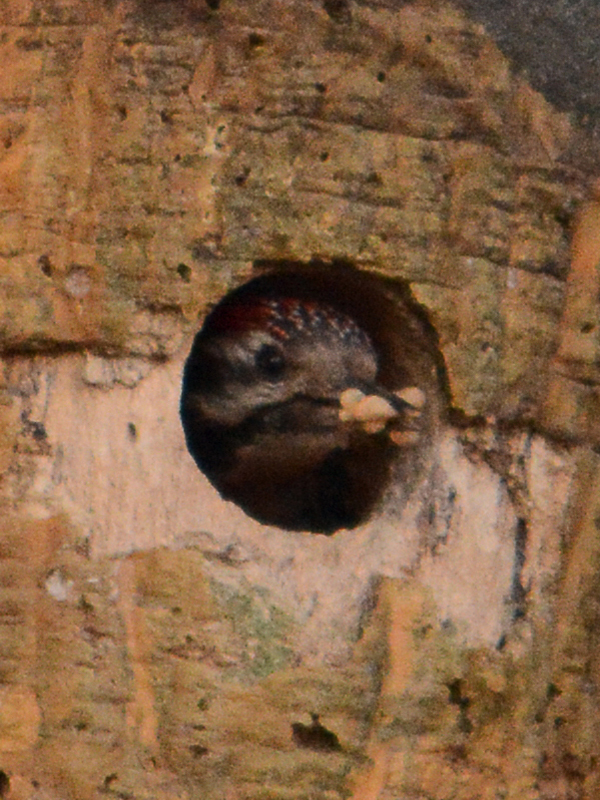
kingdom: Animalia
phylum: Chordata
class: Aves
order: Piciformes
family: Picidae
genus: Dryobates
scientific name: Dryobates scalaris
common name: Ladder-backed woodpecker
